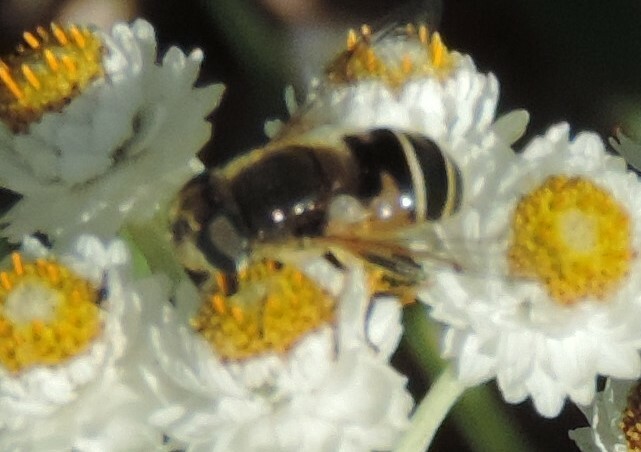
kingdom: Animalia
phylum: Arthropoda
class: Insecta
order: Diptera
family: Syrphidae
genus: Eristalis
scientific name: Eristalis hirta
